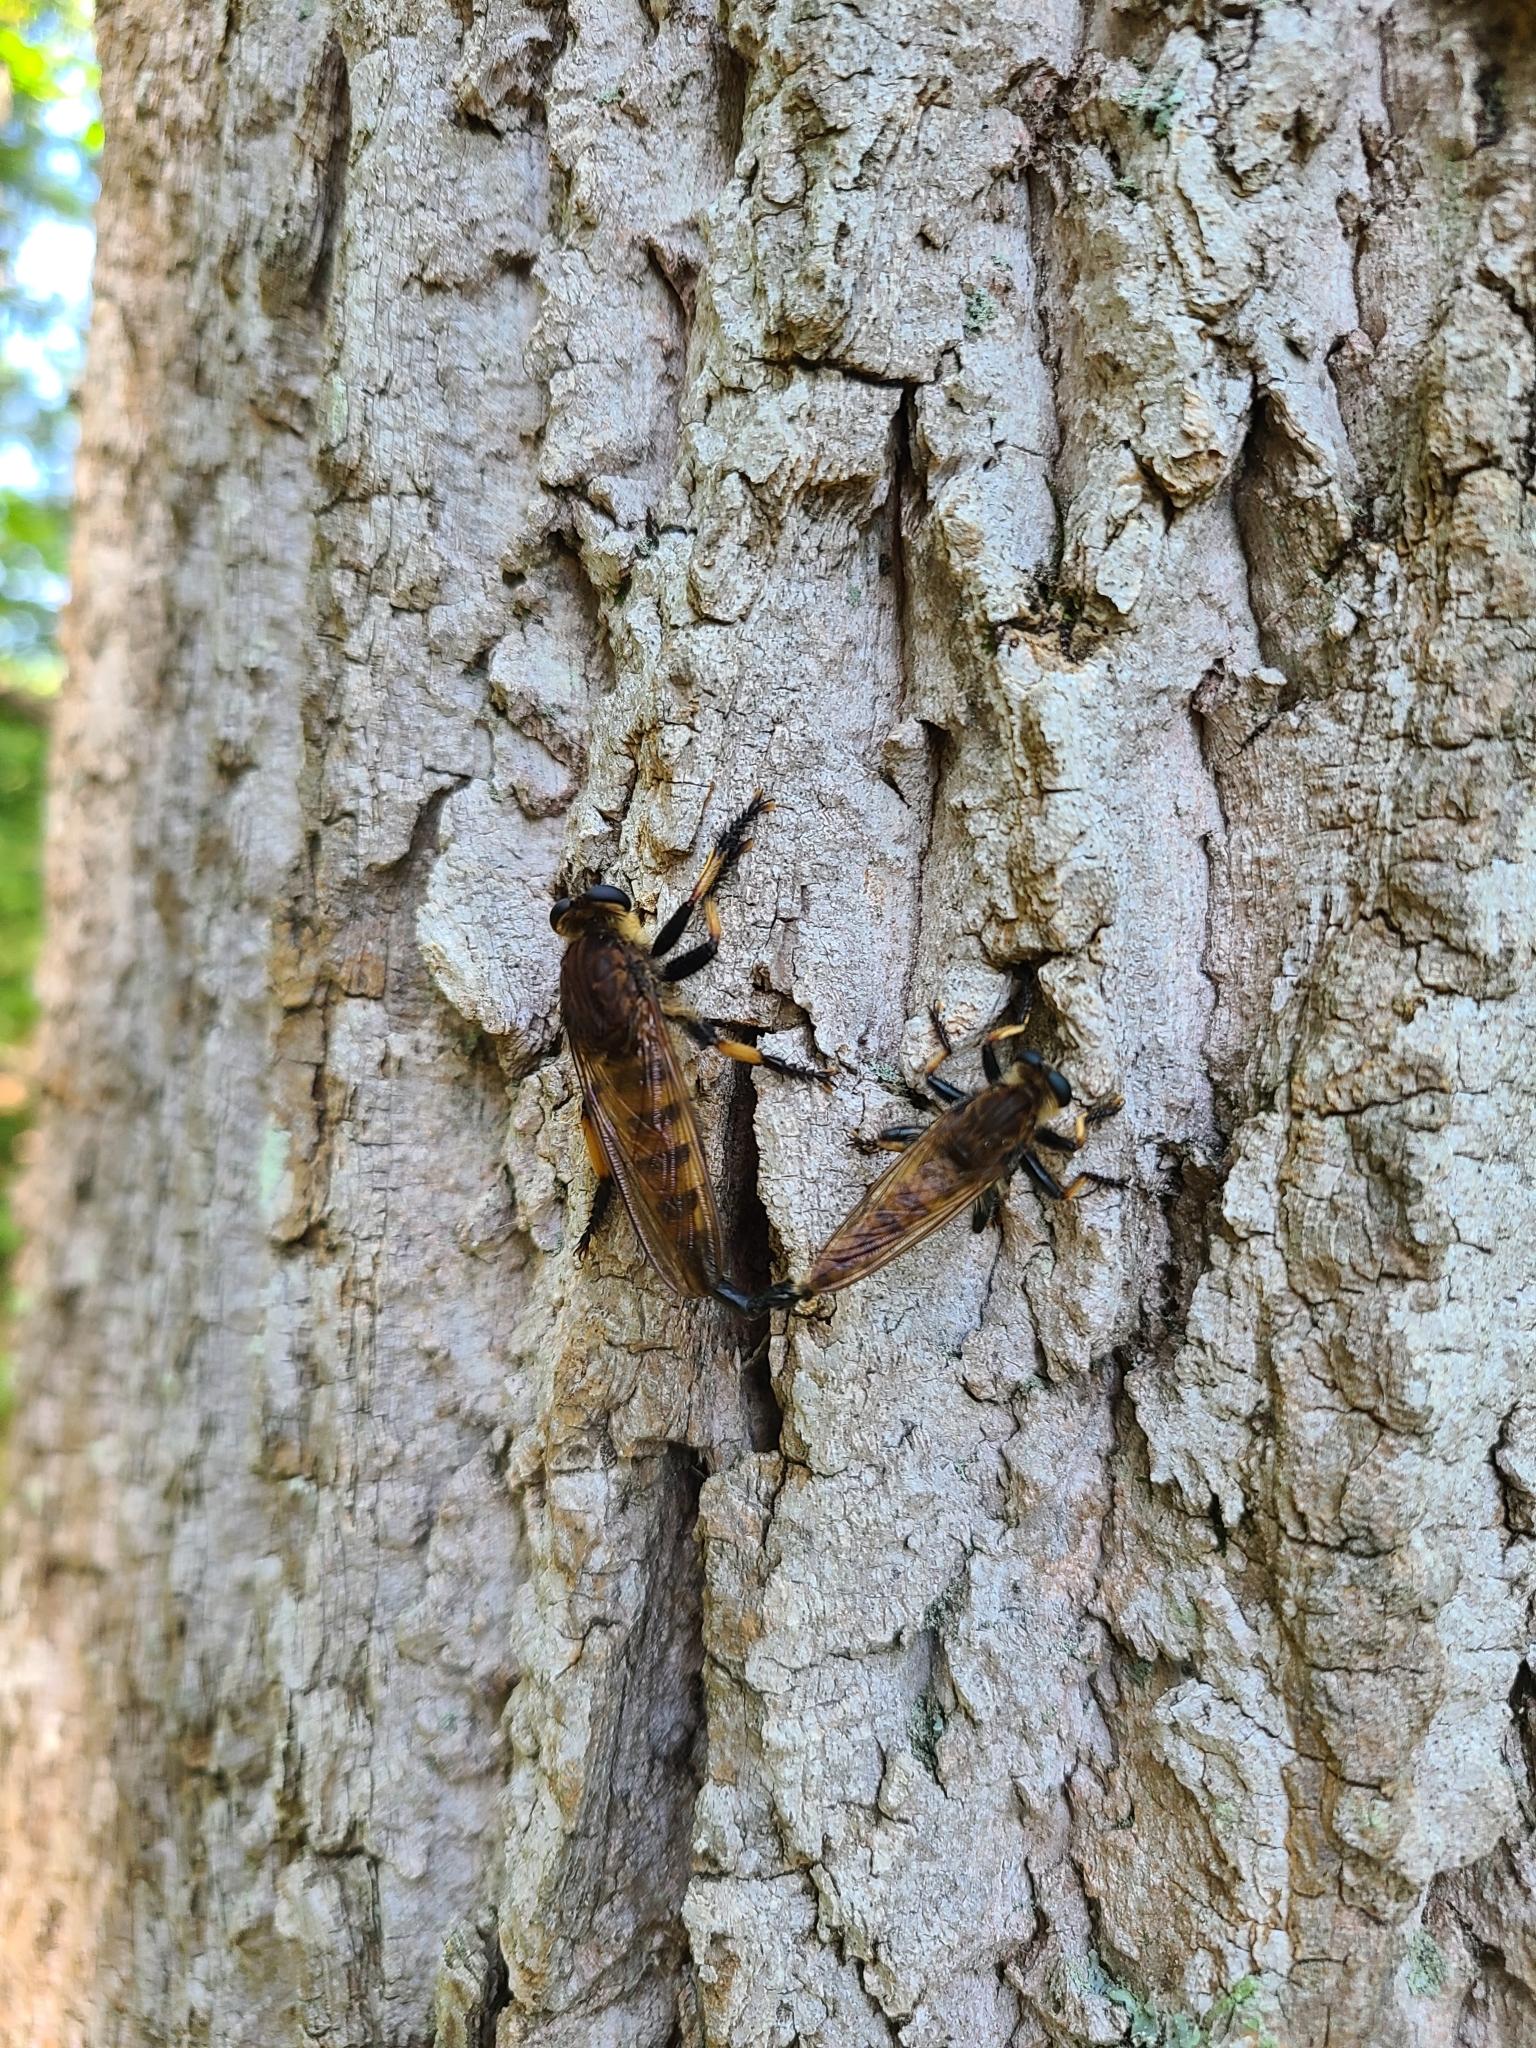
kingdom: Animalia
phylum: Arthropoda
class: Insecta
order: Diptera
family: Asilidae
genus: Promachus
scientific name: Promachus rufipes
